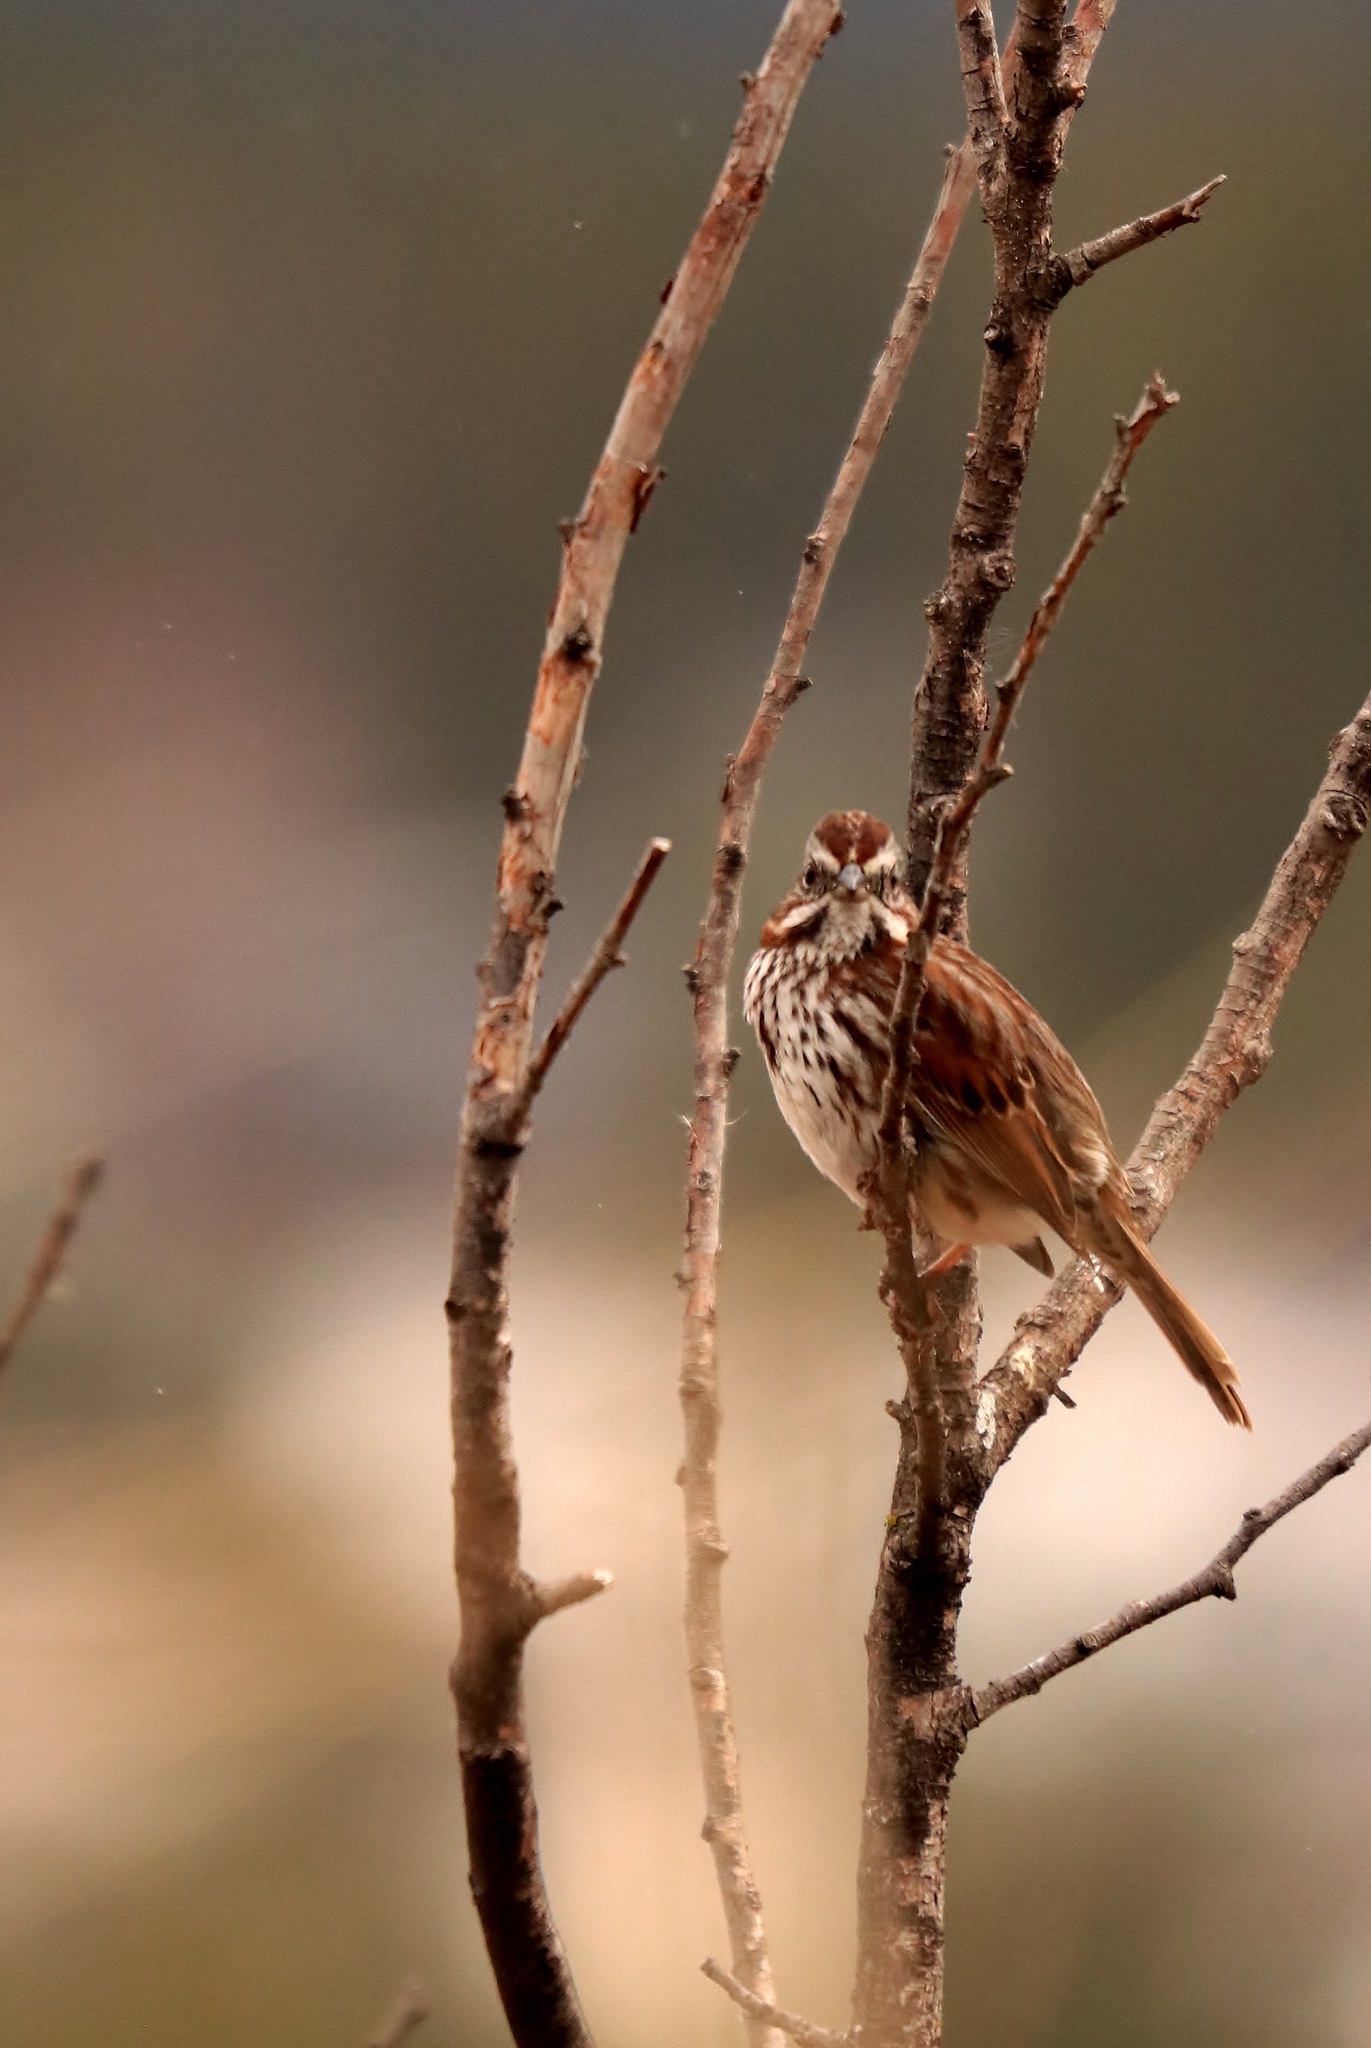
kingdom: Animalia
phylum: Chordata
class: Aves
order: Passeriformes
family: Passerellidae
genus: Melospiza
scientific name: Melospiza melodia
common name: Song sparrow
